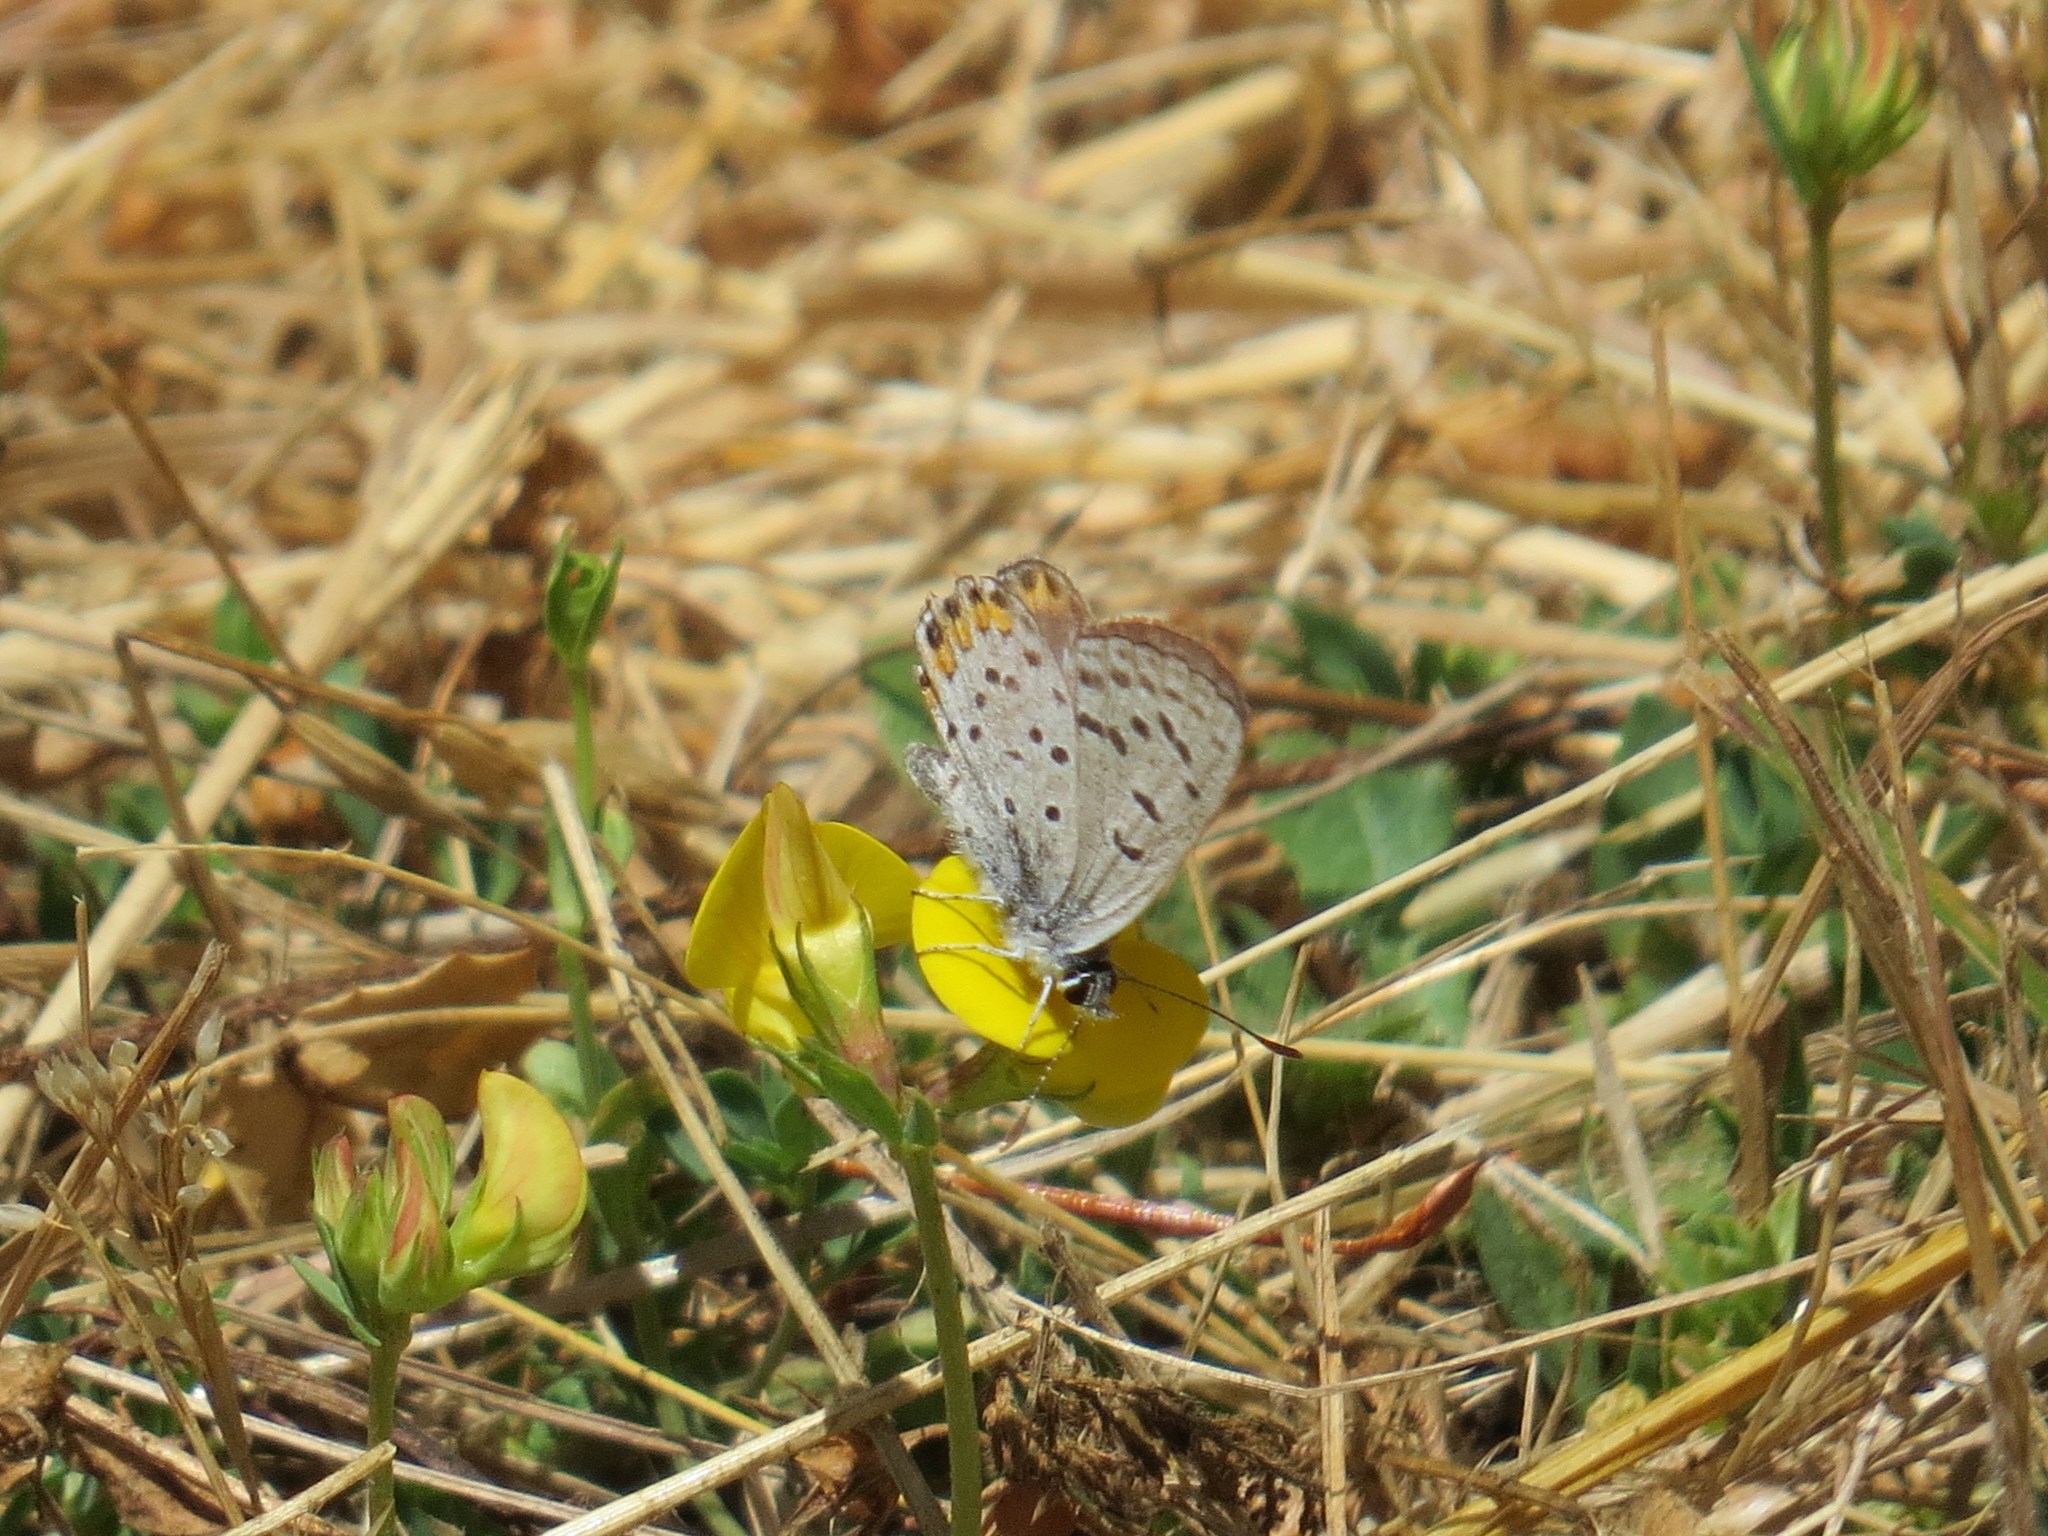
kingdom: Animalia
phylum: Arthropoda
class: Insecta
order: Lepidoptera
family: Lycaenidae
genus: Icaricia
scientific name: Icaricia acmon
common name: Acmon blue
